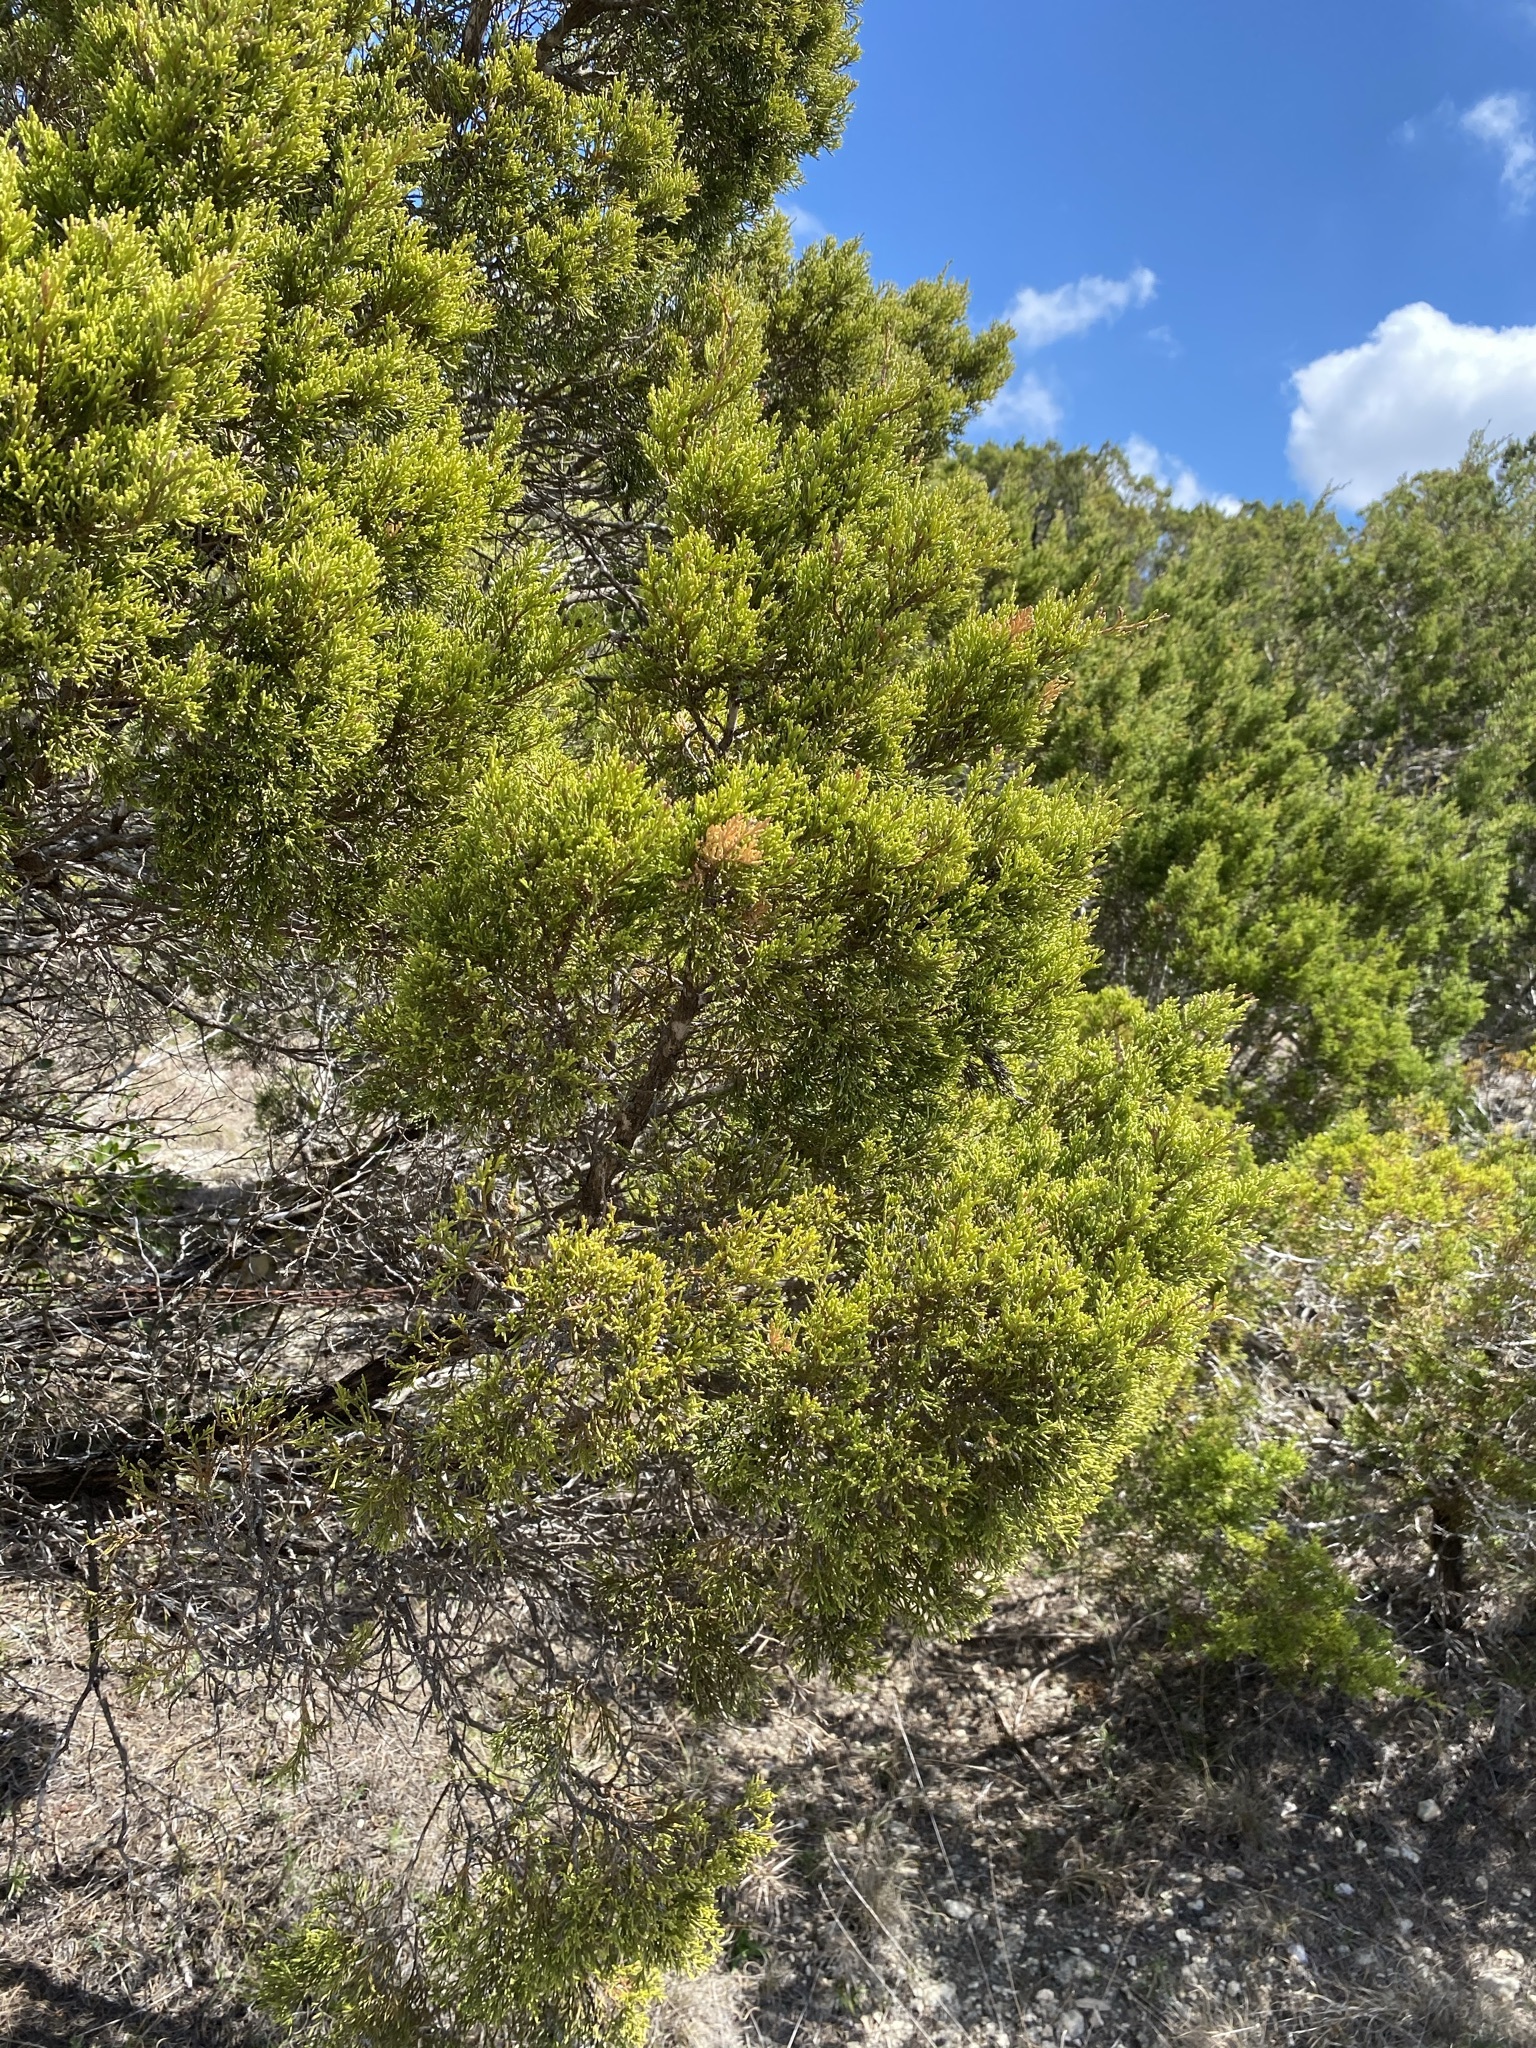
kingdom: Plantae
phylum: Tracheophyta
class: Pinopsida
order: Pinales
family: Cupressaceae
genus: Juniperus
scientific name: Juniperus ashei
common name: Mexican juniper
